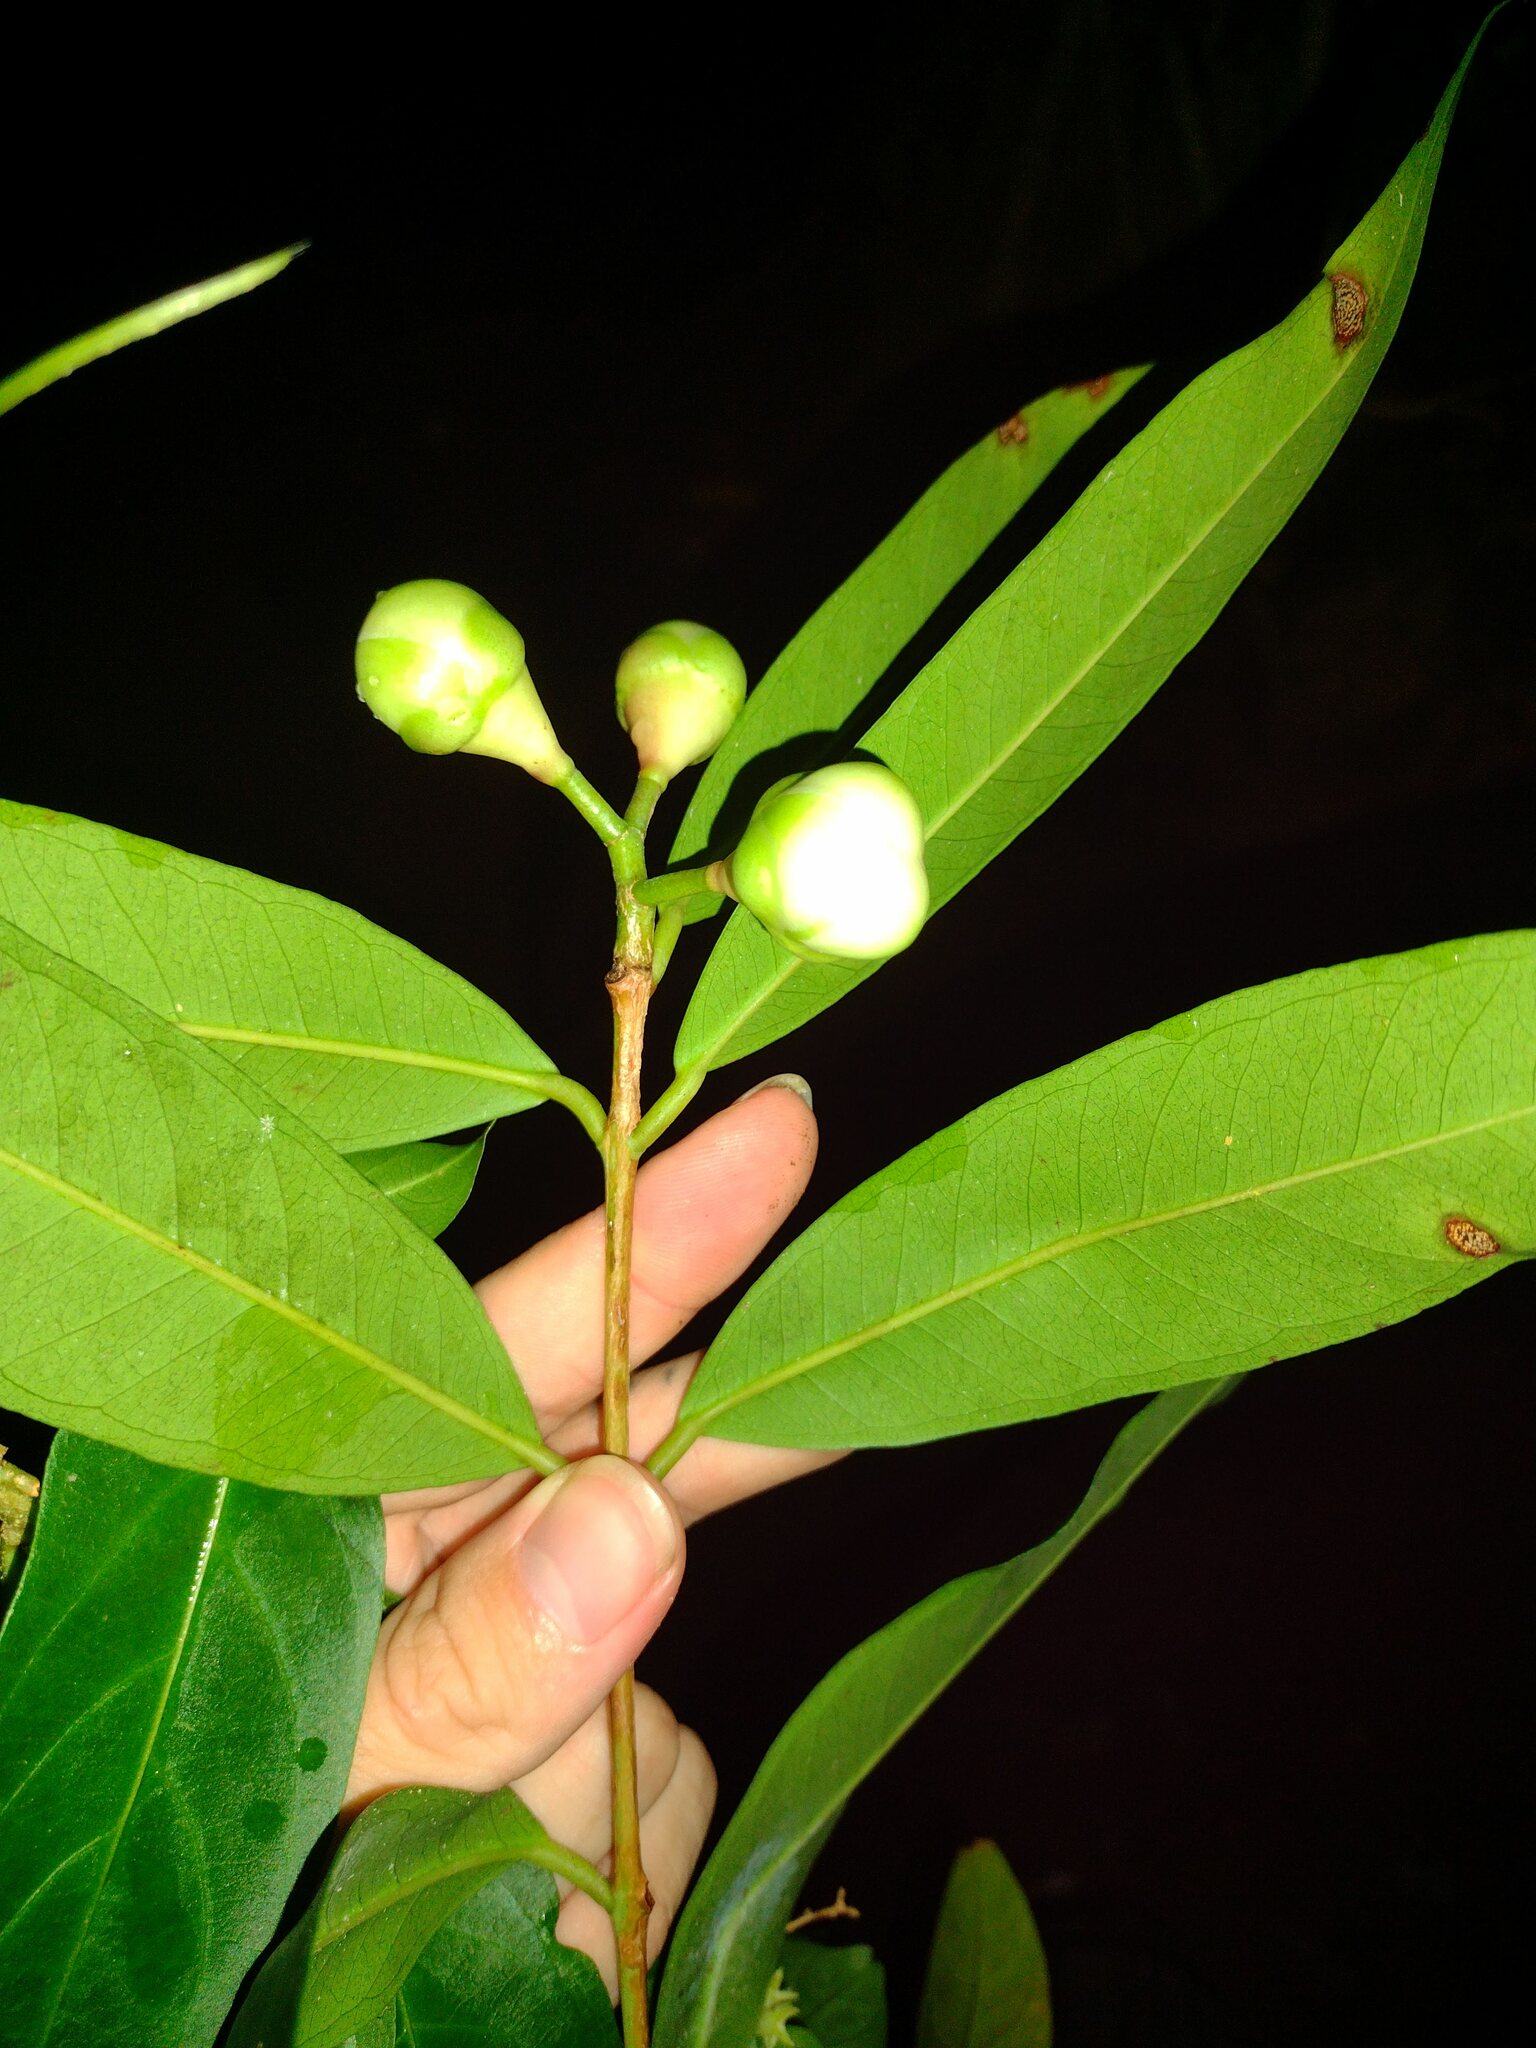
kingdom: Plantae
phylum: Tracheophyta
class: Magnoliopsida
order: Myrtales
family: Myrtaceae
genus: Syzygium
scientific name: Syzygium jambos
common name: Malabar plum
